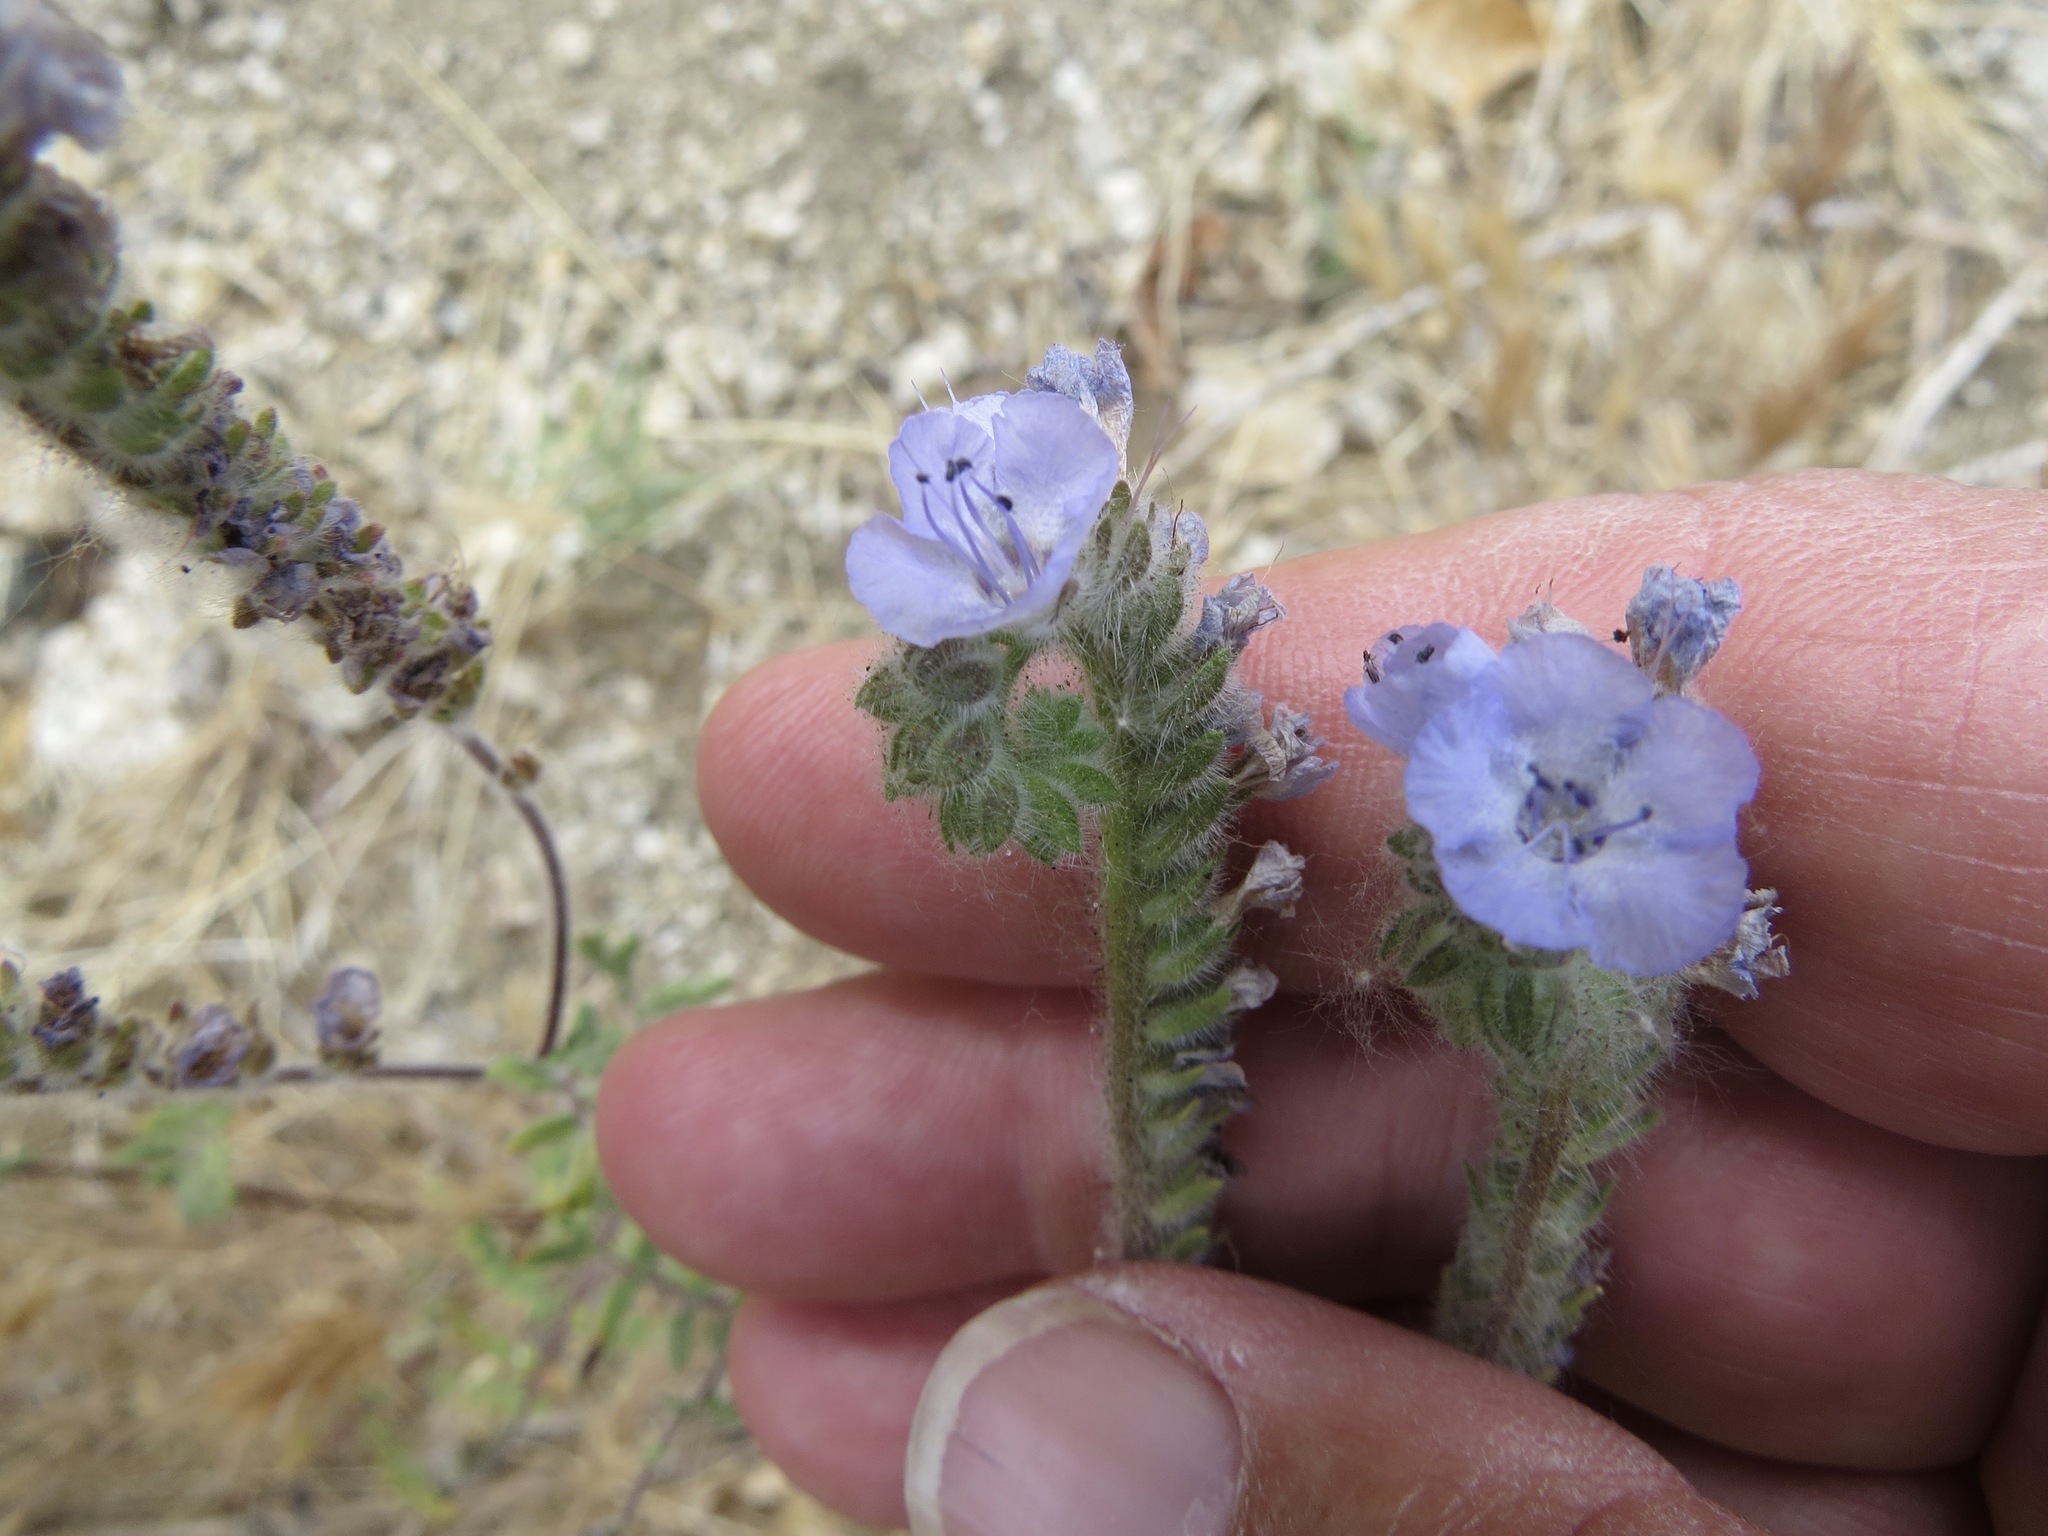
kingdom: Plantae
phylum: Tracheophyta
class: Magnoliopsida
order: Boraginales
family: Hydrophyllaceae
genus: Phacelia
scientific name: Phacelia distans
